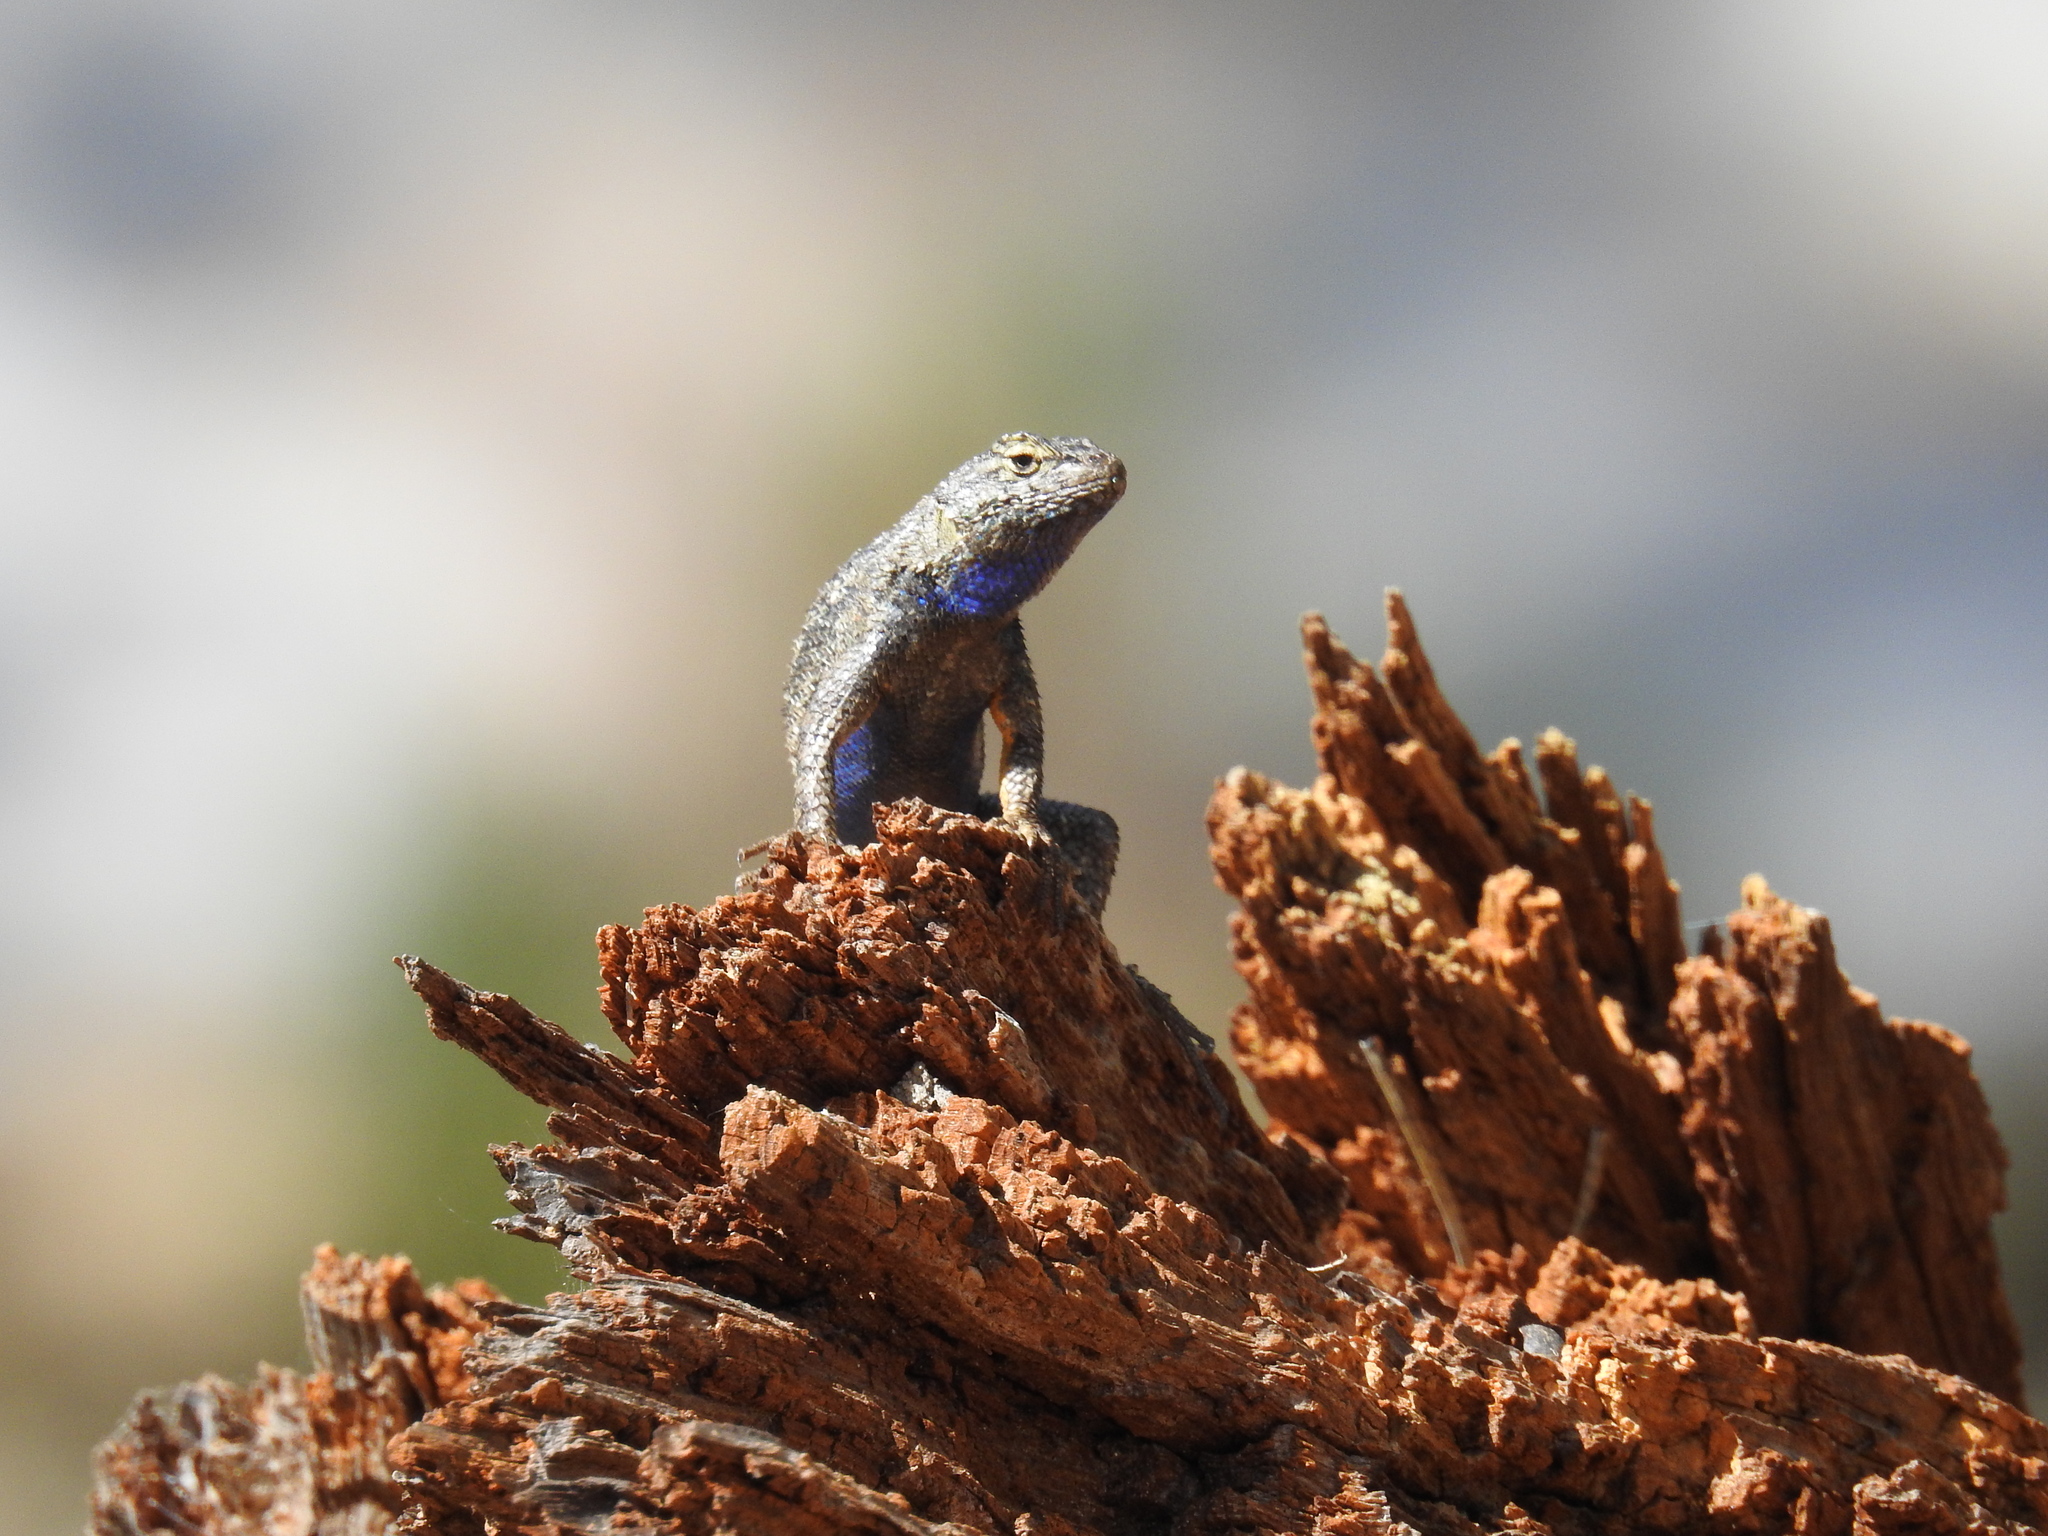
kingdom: Animalia
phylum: Chordata
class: Squamata
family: Phrynosomatidae
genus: Sceloporus
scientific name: Sceloporus occidentalis
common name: Western fence lizard
